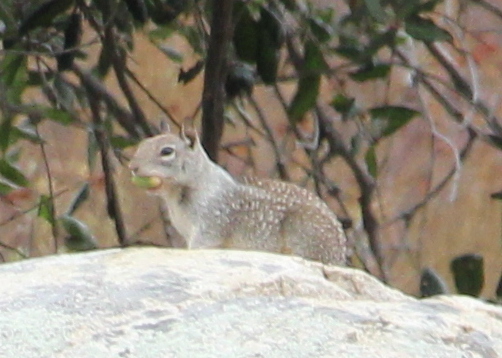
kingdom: Animalia
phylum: Chordata
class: Mammalia
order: Rodentia
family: Sciuridae
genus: Otospermophilus
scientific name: Otospermophilus beecheyi
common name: California ground squirrel
